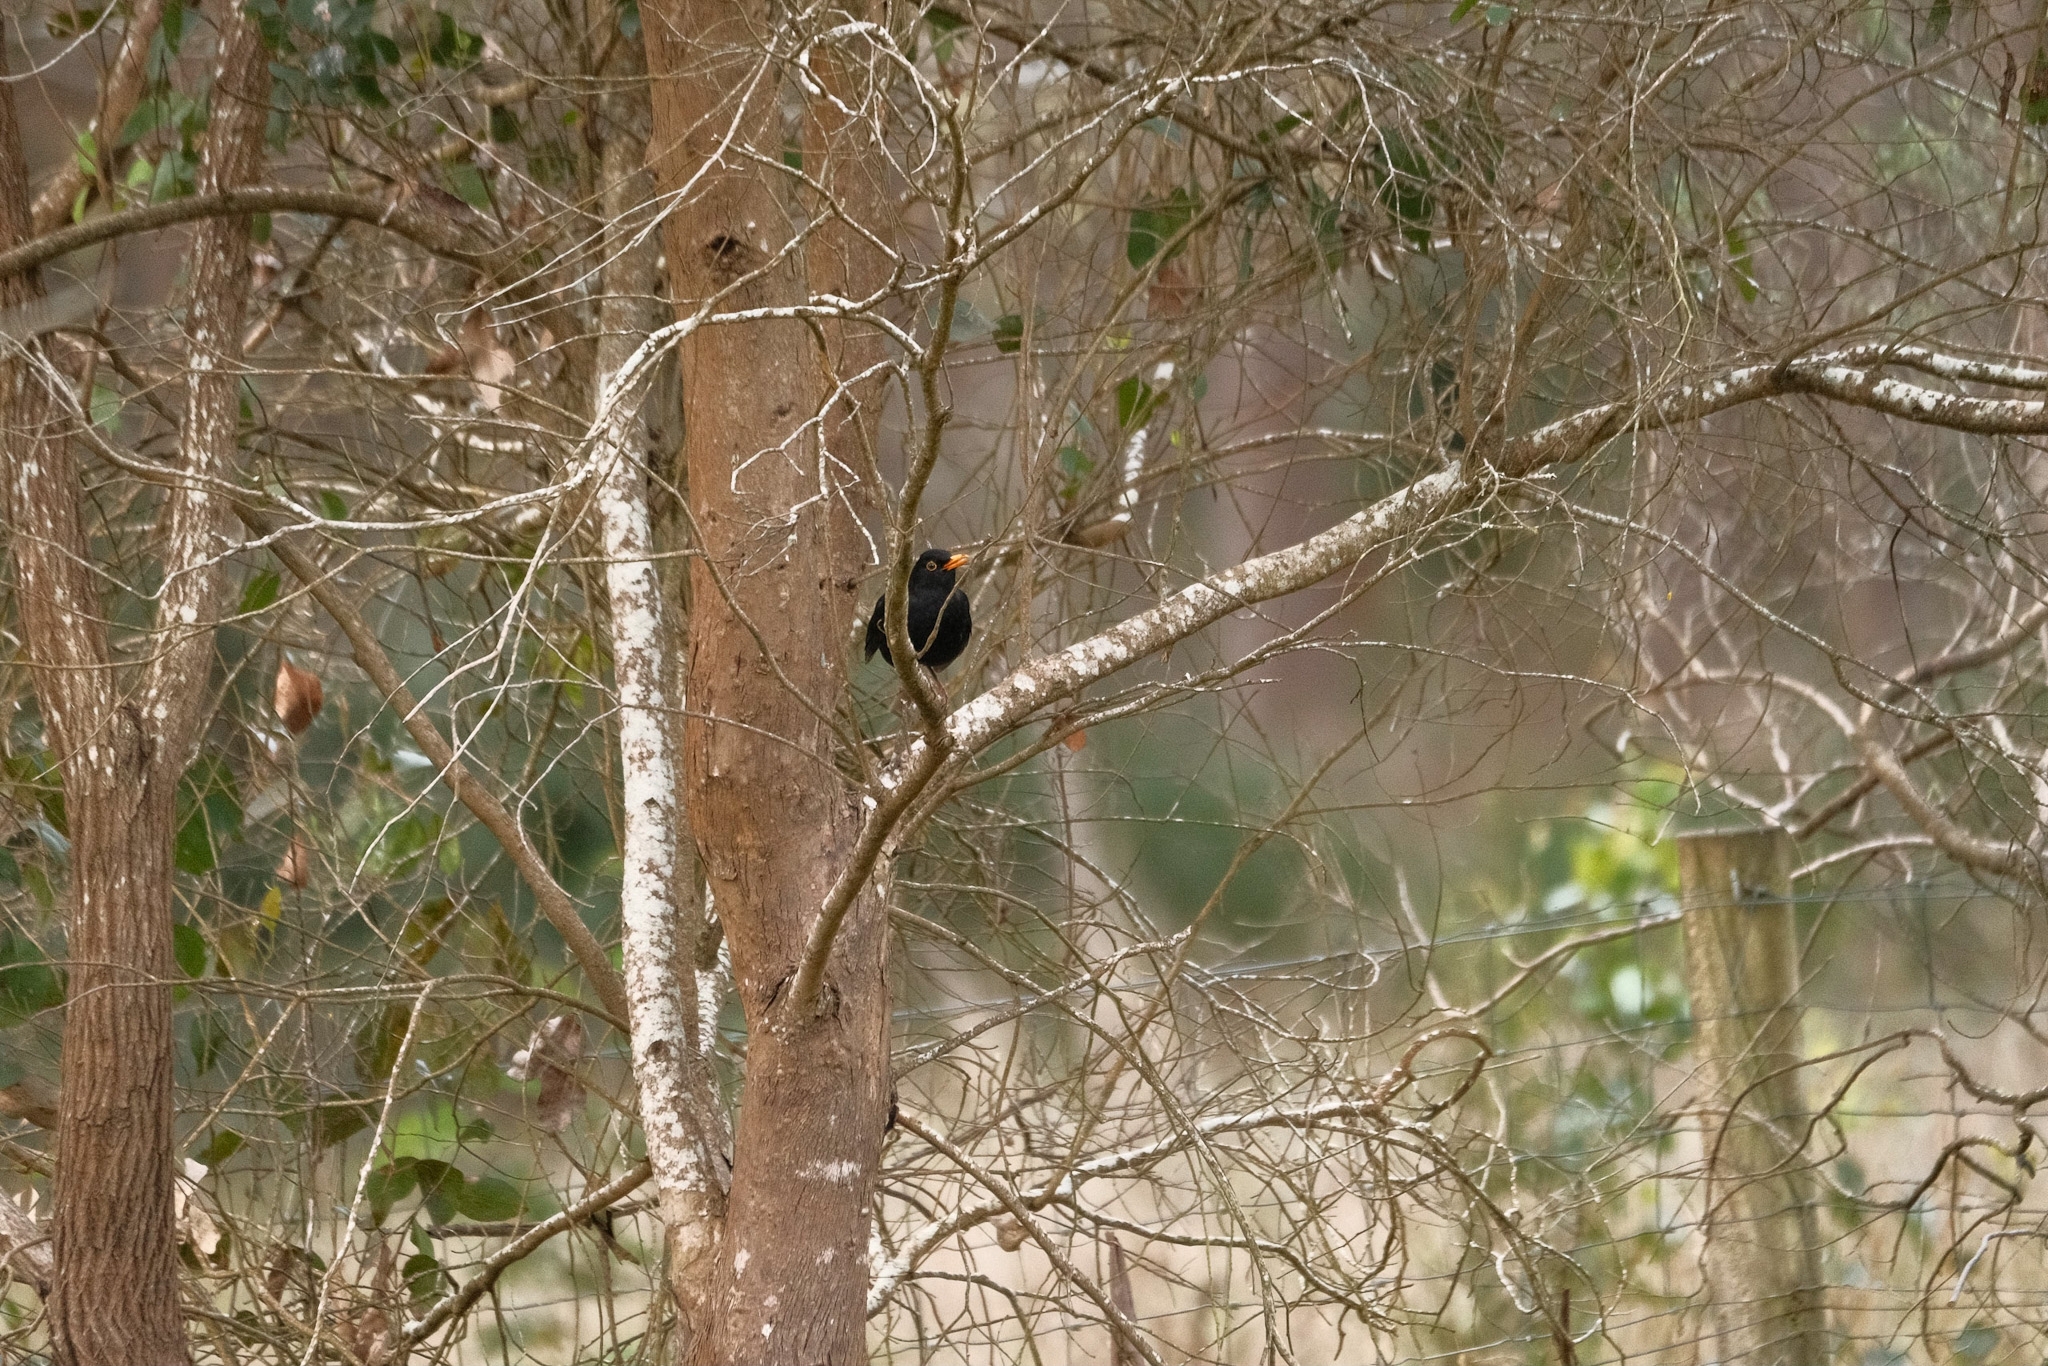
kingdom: Animalia
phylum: Chordata
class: Aves
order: Passeriformes
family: Turdidae
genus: Turdus
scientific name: Turdus merula
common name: Common blackbird
